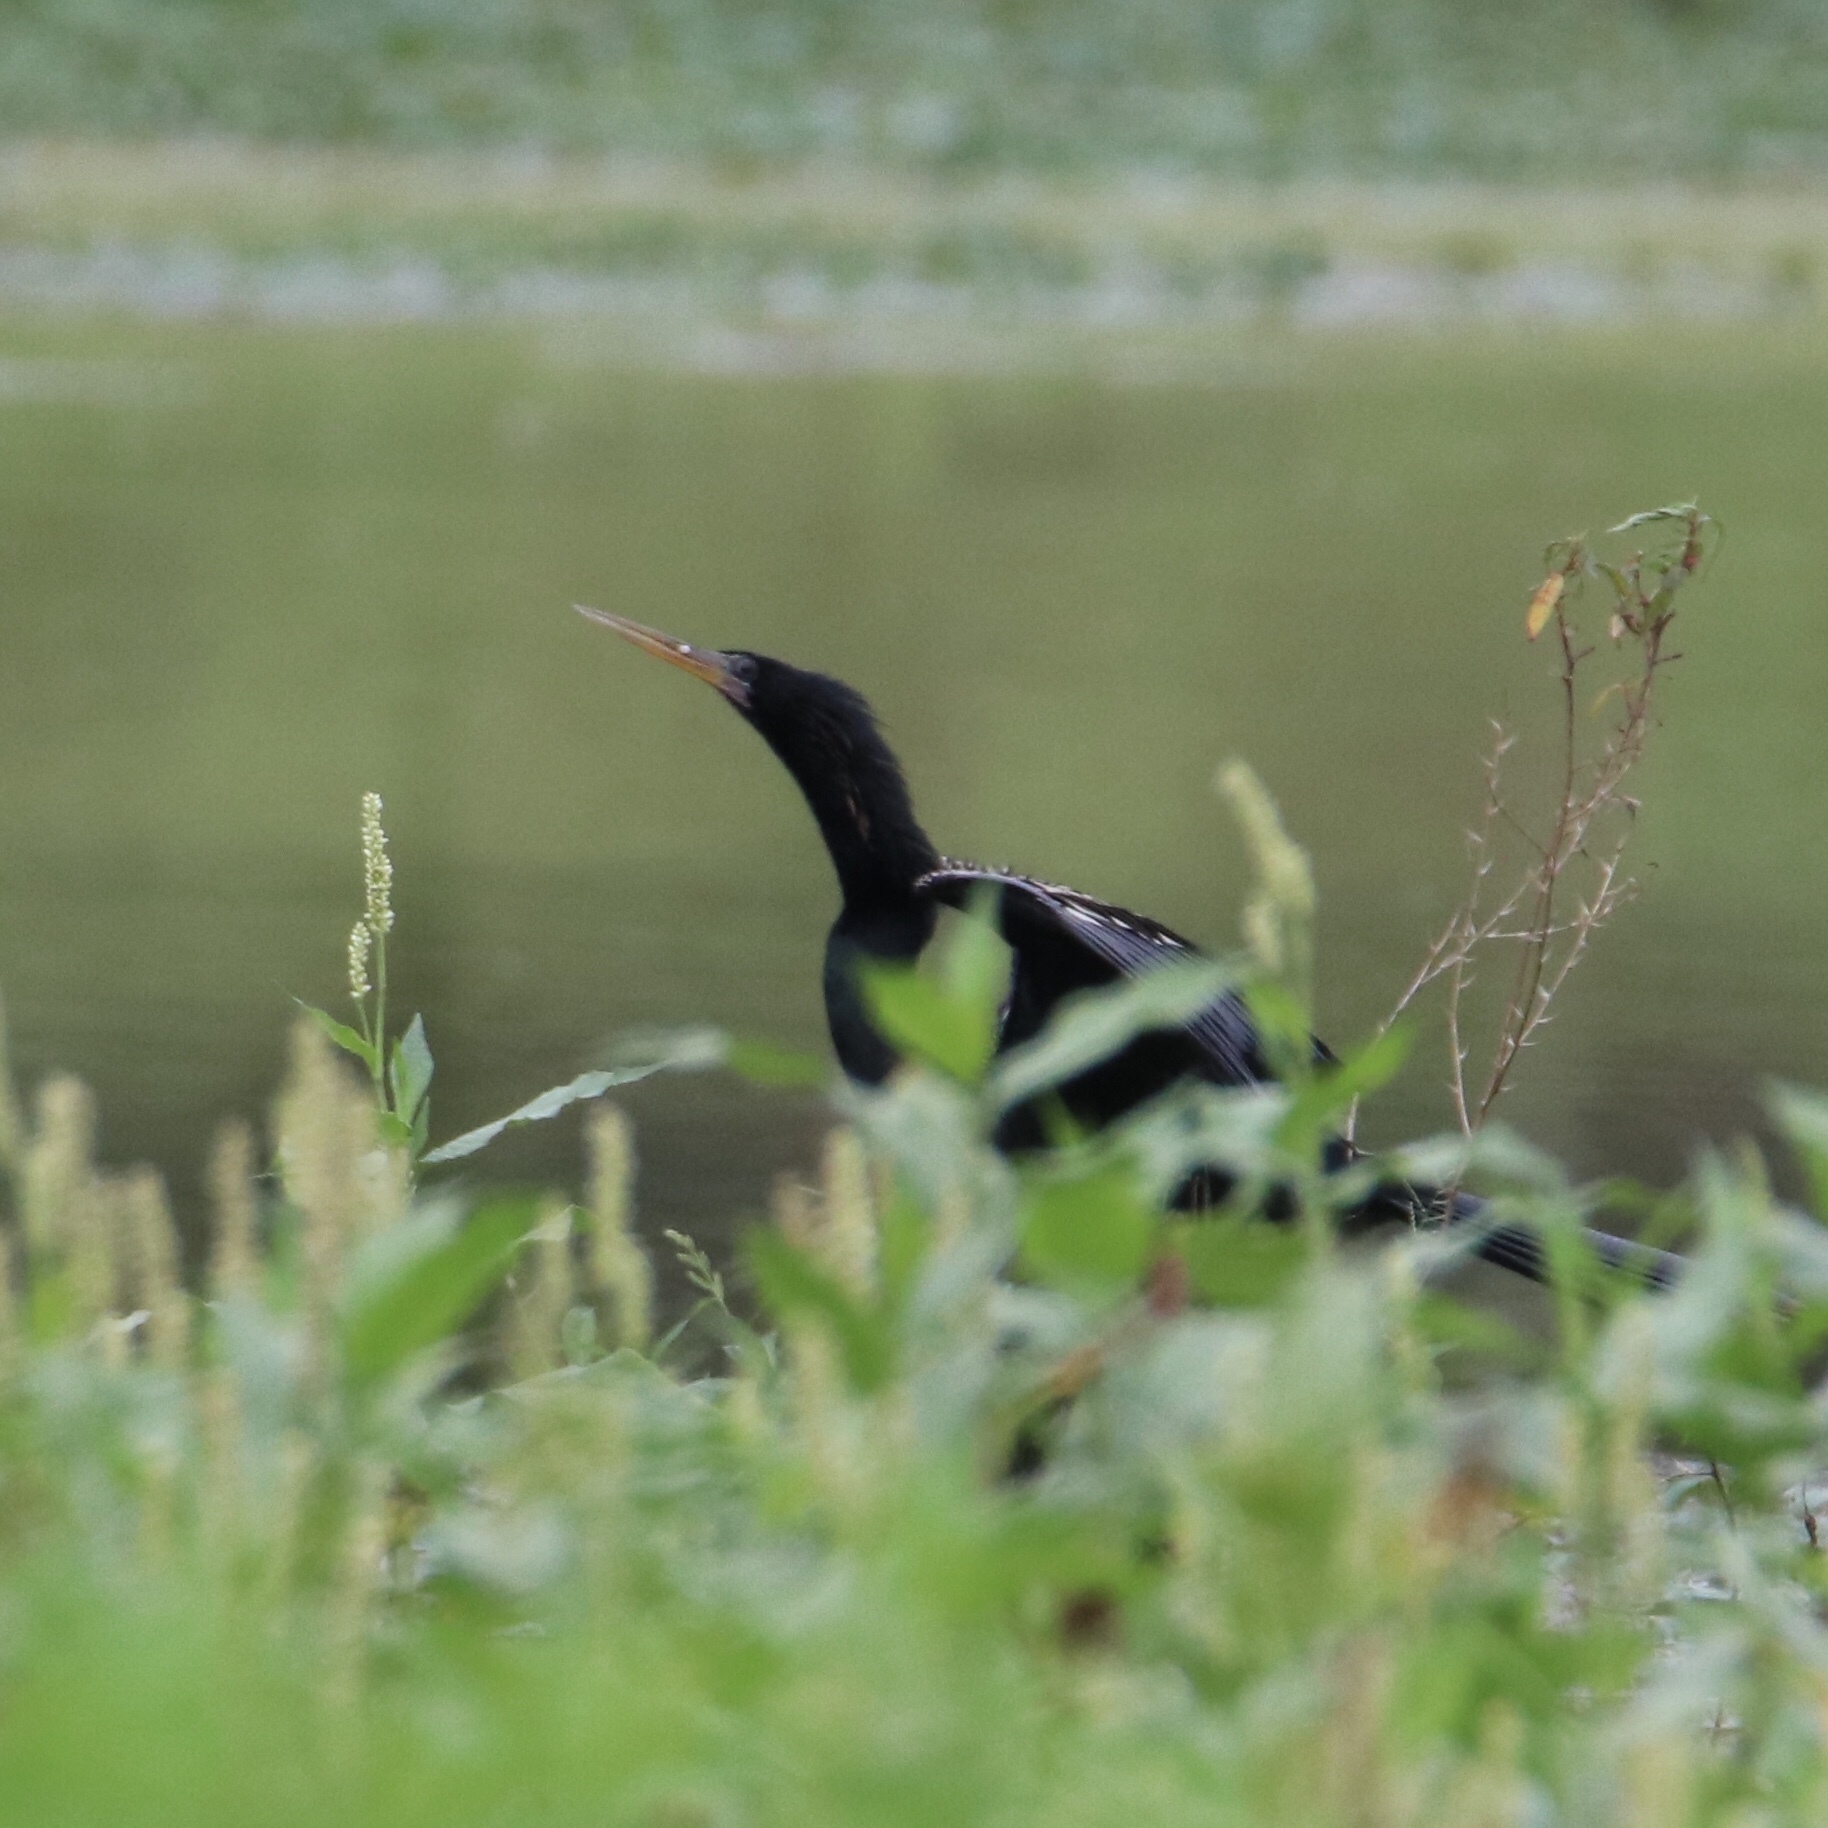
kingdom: Animalia
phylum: Chordata
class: Aves
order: Suliformes
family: Anhingidae
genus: Anhinga
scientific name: Anhinga anhinga
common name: Anhinga
